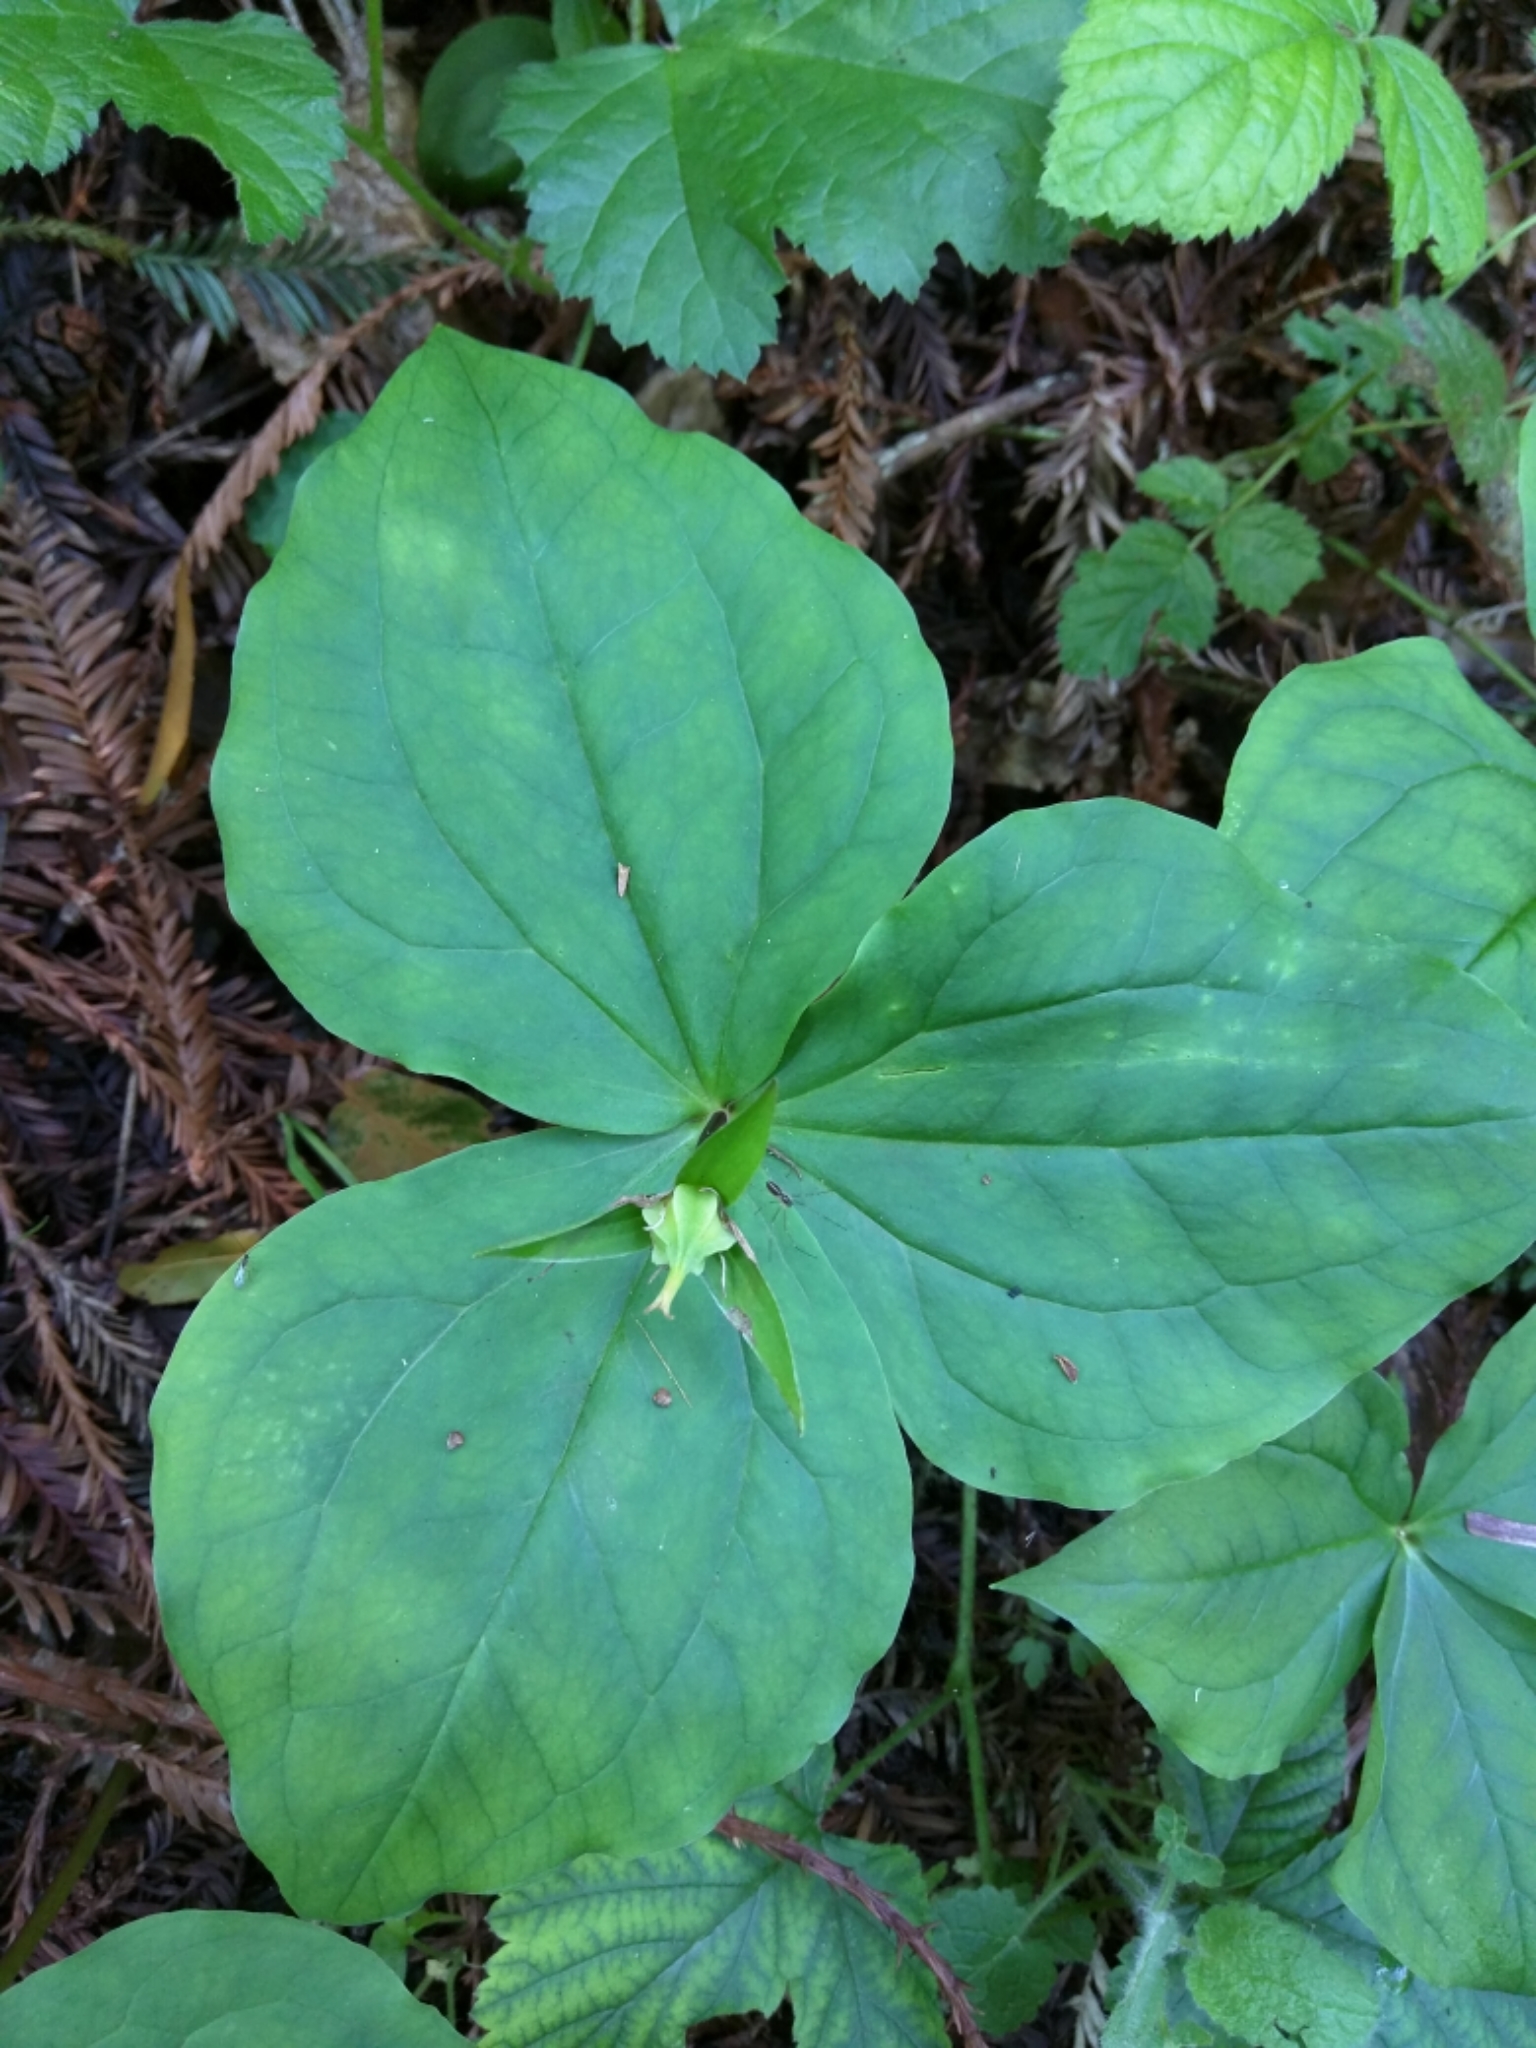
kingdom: Plantae
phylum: Tracheophyta
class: Liliopsida
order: Liliales
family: Melanthiaceae
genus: Trillium
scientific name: Trillium ovatum
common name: Pacific trillium
